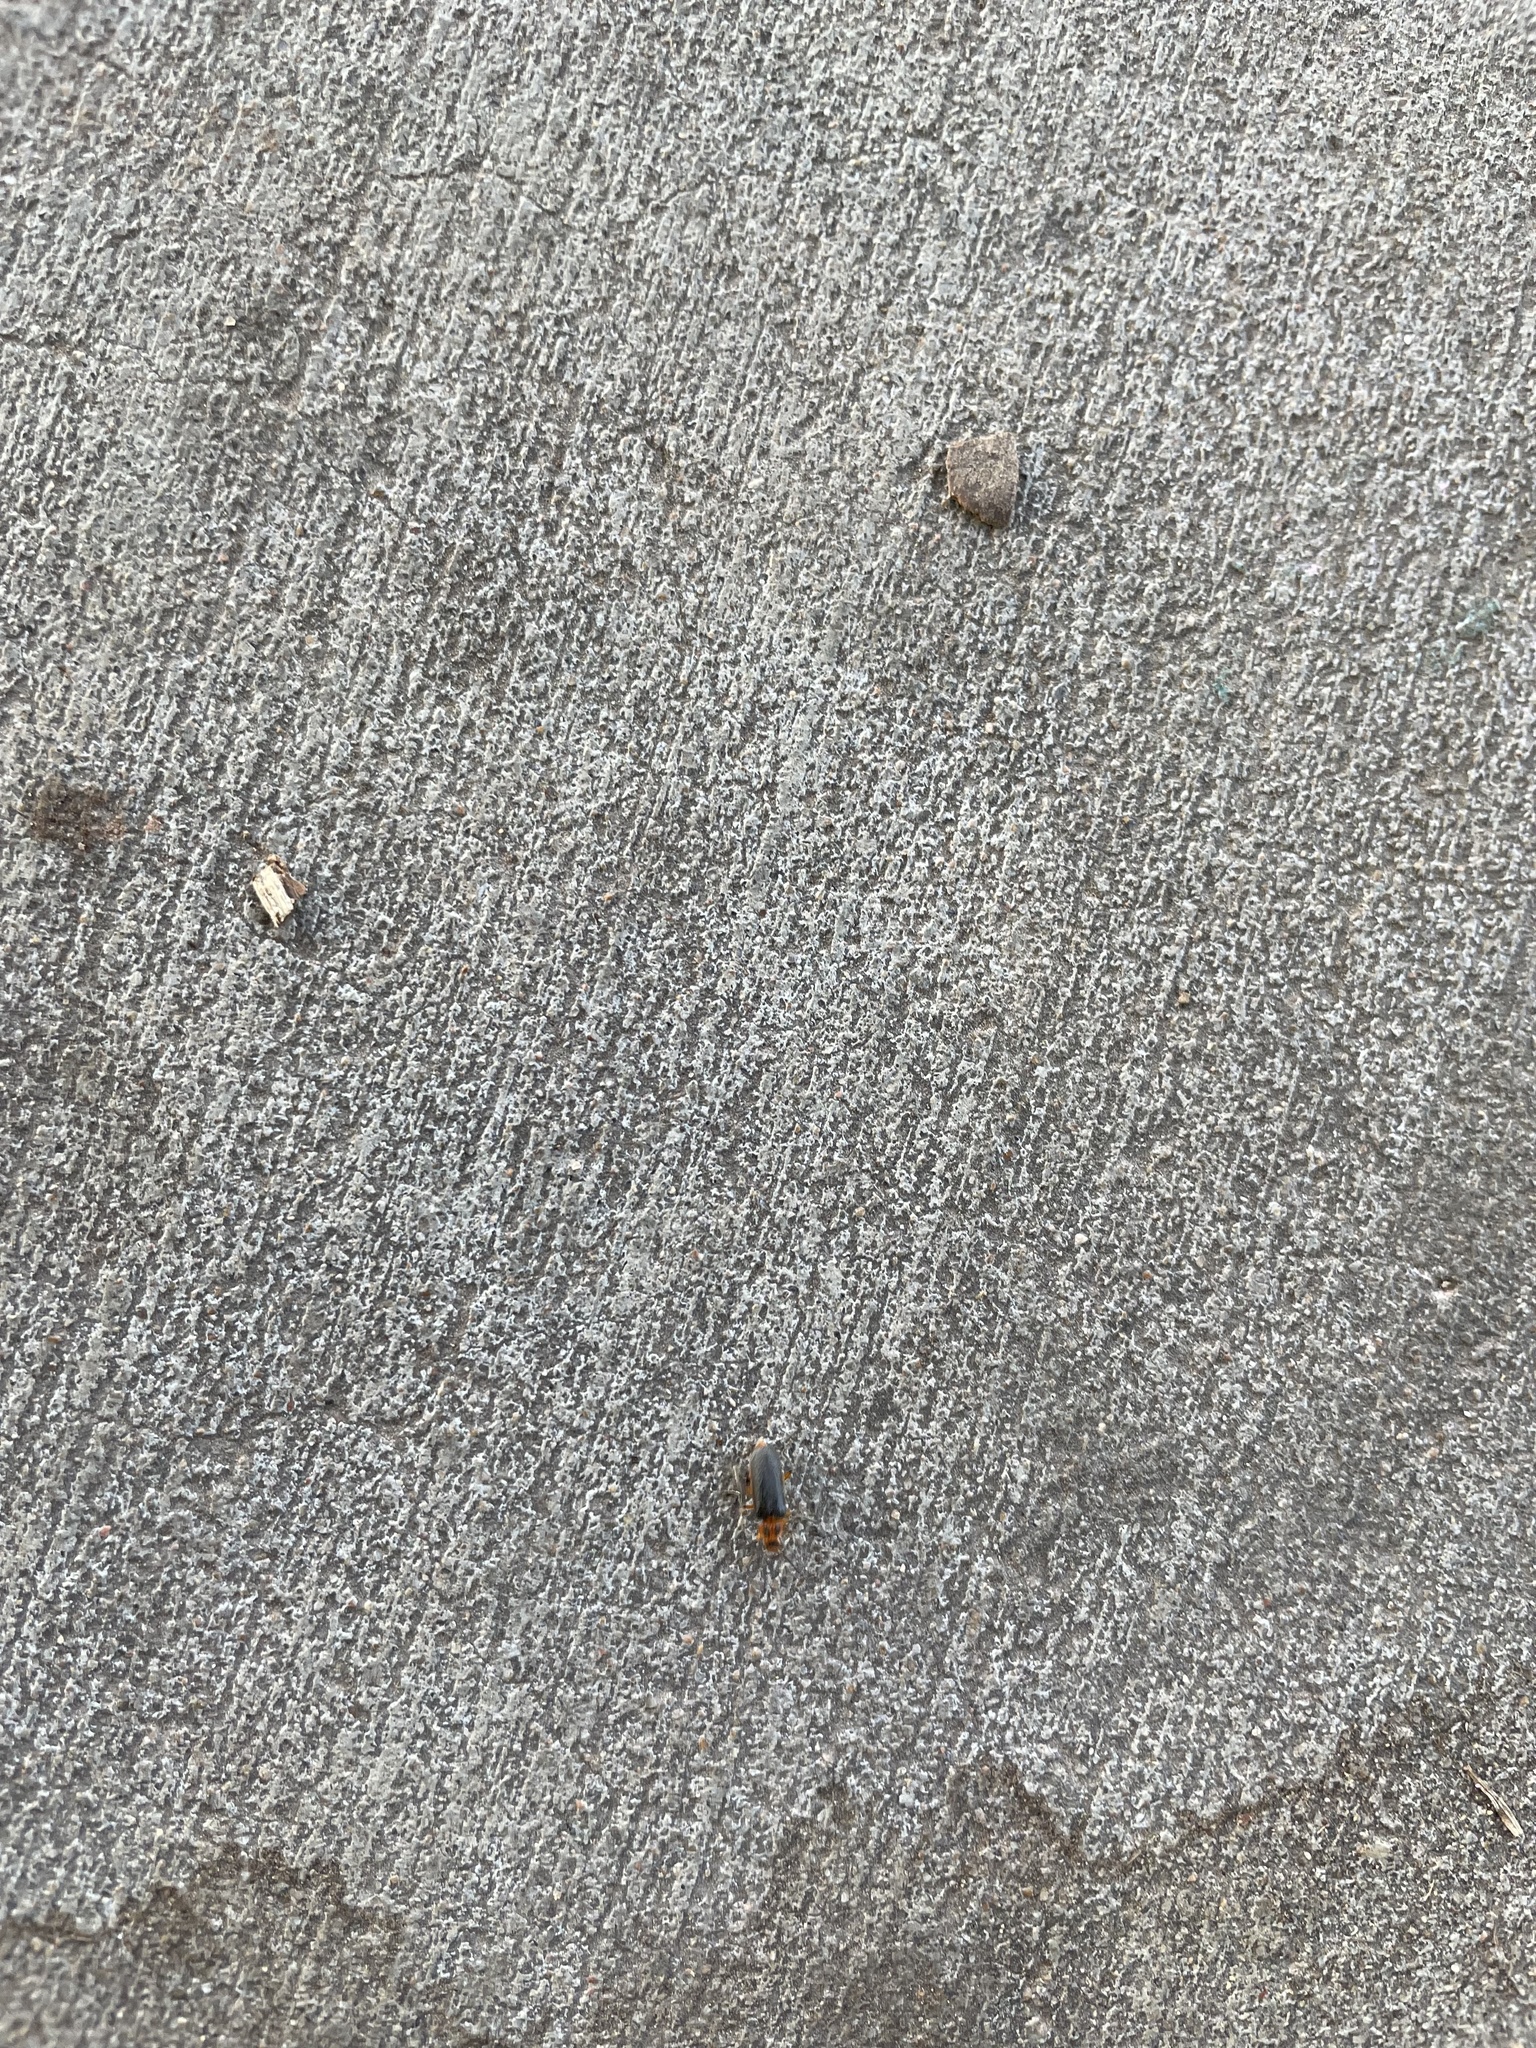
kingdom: Animalia
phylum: Arthropoda
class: Insecta
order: Coleoptera
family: Cantharidae
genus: Atalantycha
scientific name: Atalantycha bilineata
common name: Two-lined leatherwing
